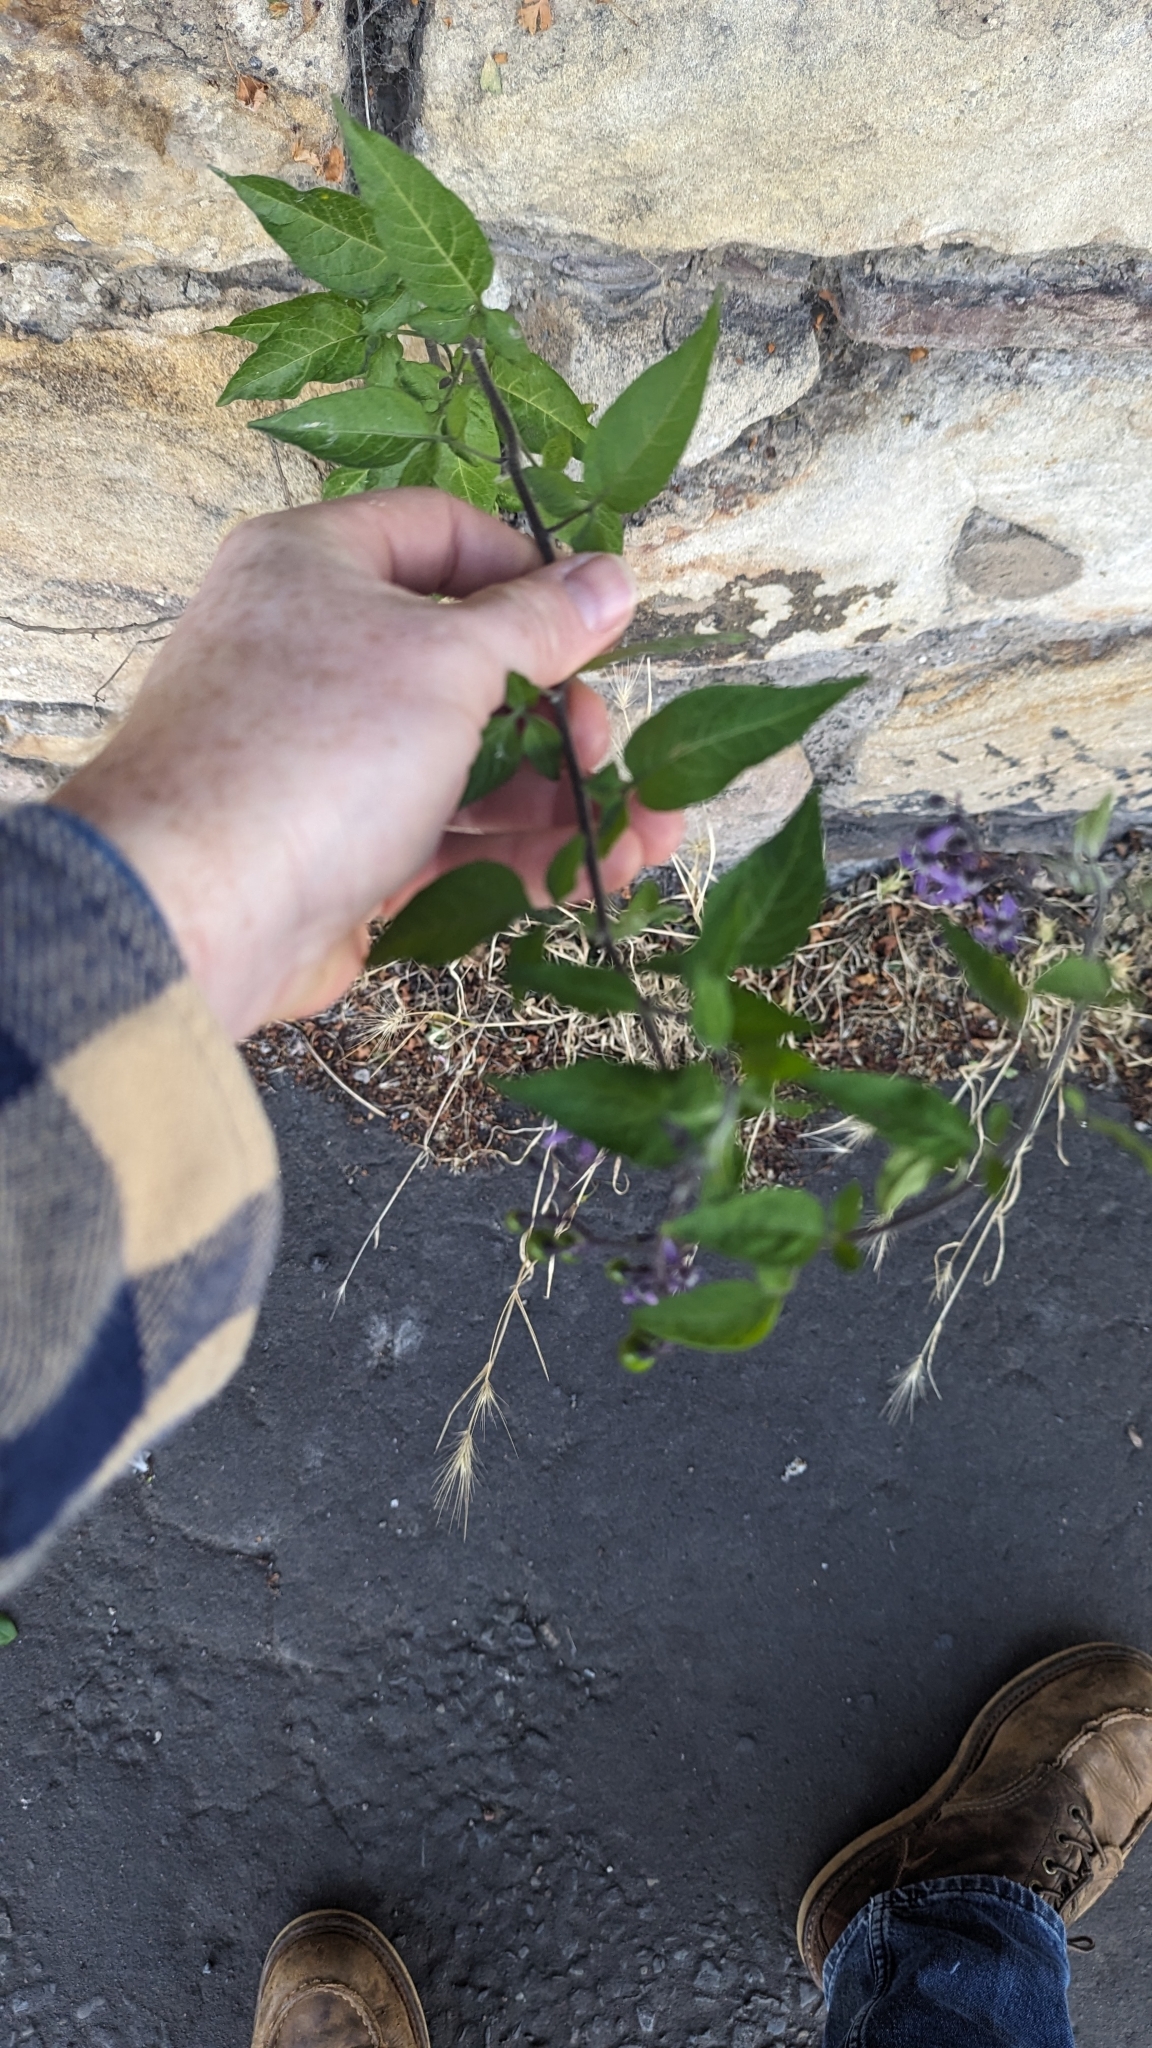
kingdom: Plantae
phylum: Tracheophyta
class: Magnoliopsida
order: Solanales
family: Solanaceae
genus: Solanum
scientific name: Solanum dulcamara
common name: Climbing nightshade
